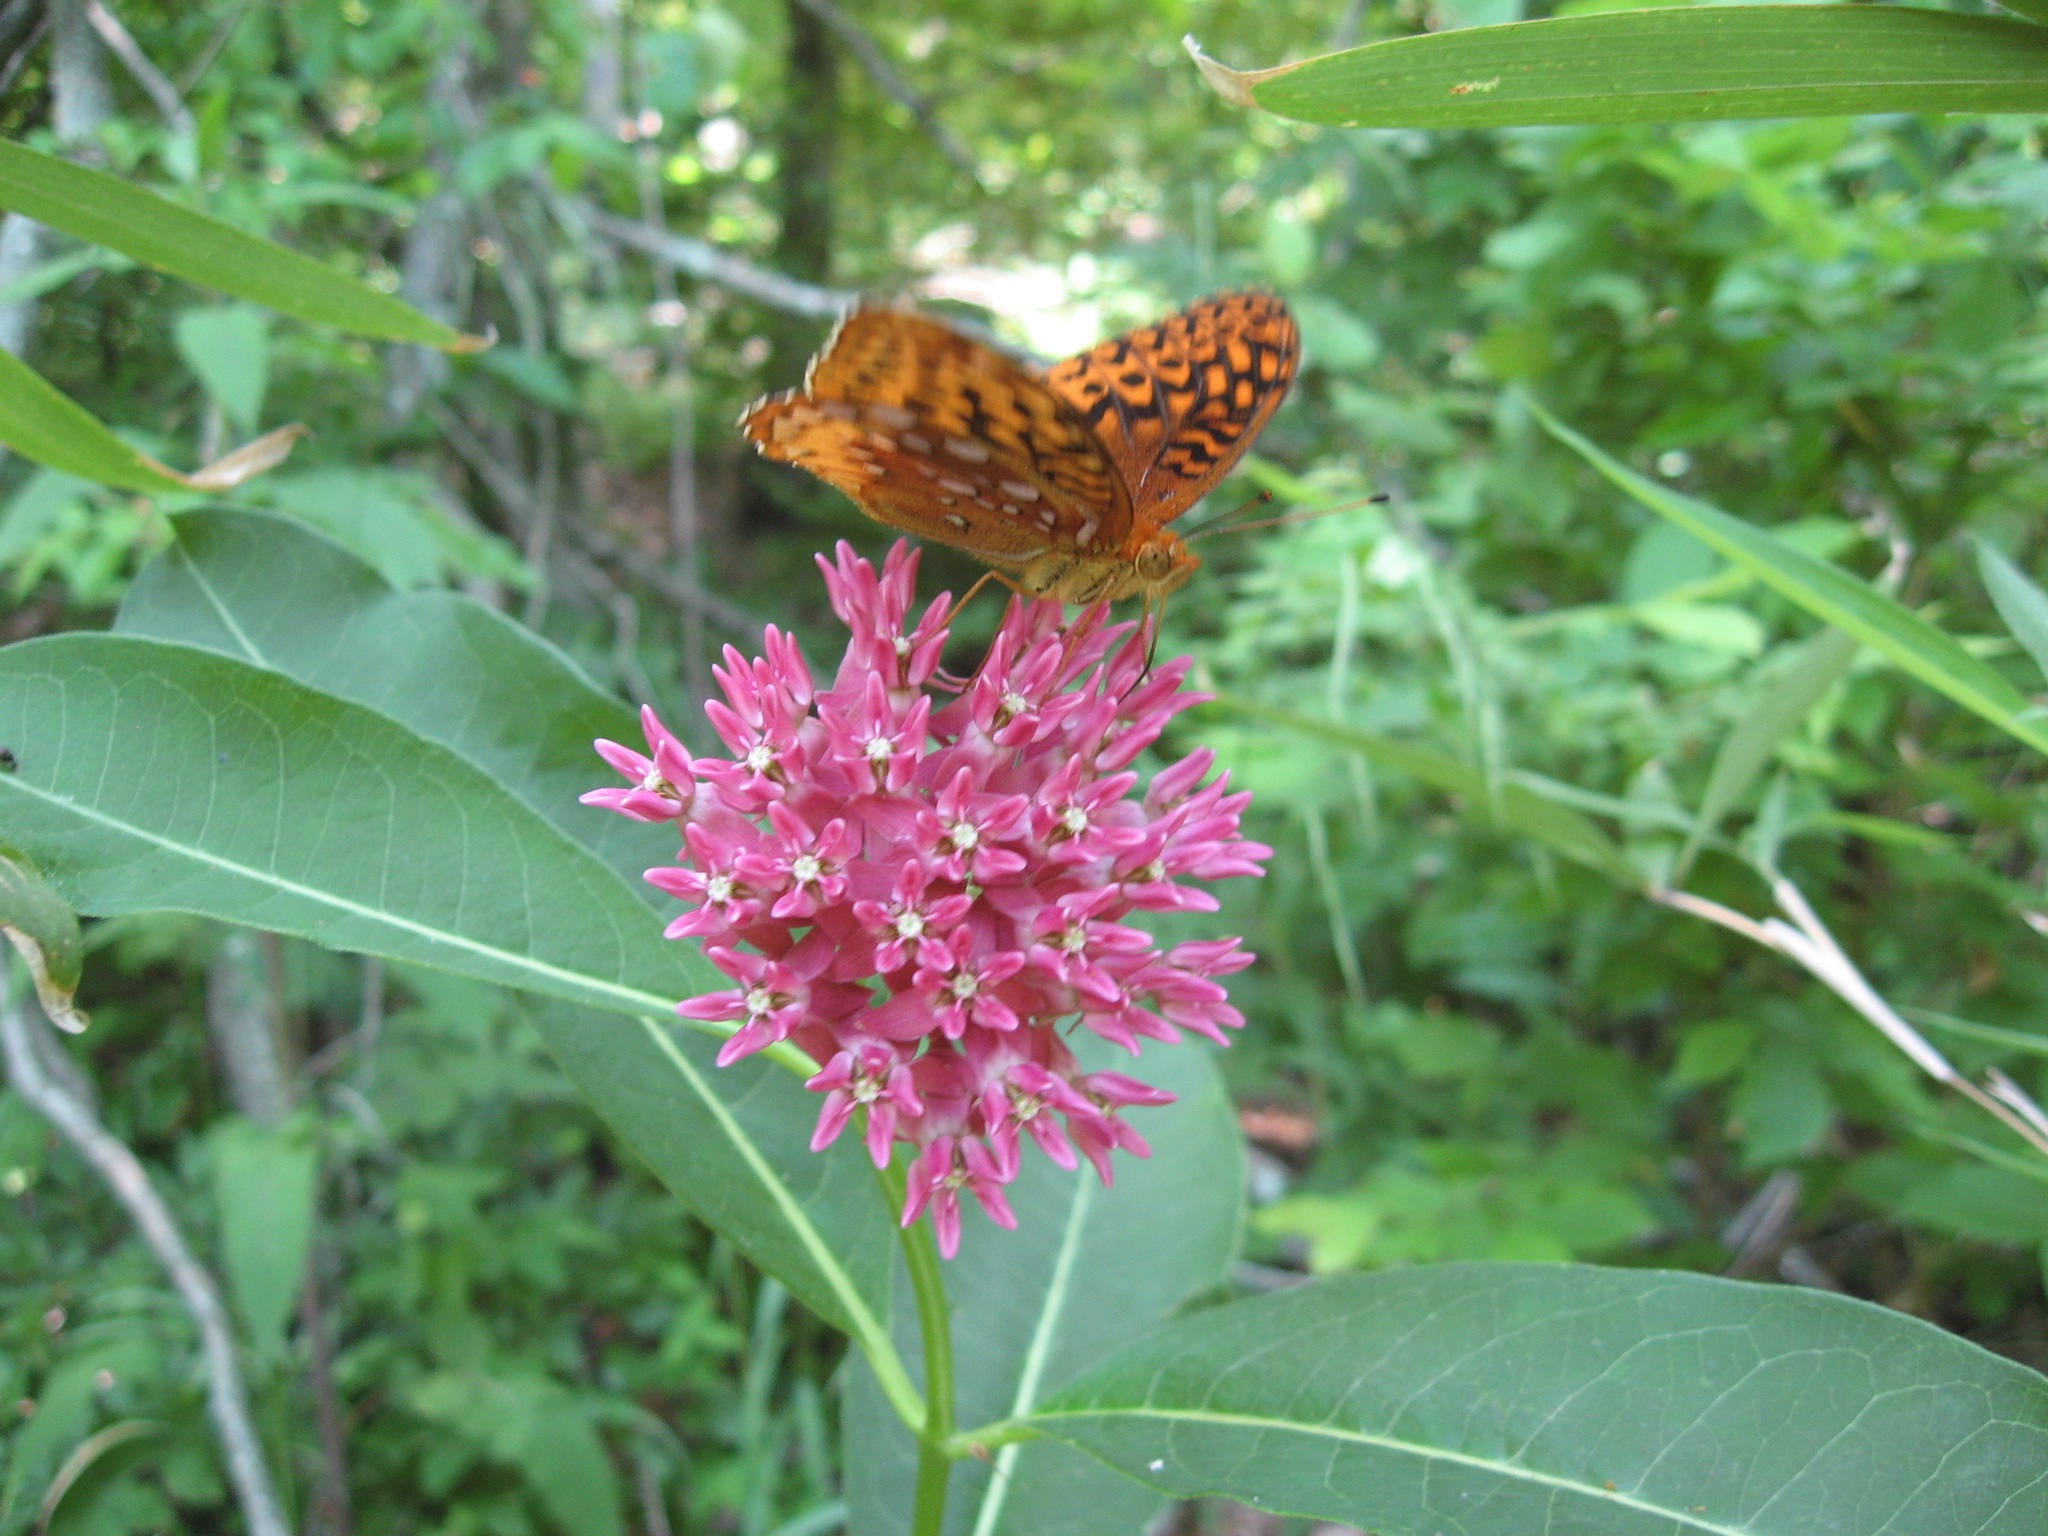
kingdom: Plantae
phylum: Tracheophyta
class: Magnoliopsida
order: Gentianales
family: Apocynaceae
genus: Asclepias
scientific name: Asclepias purpurascens
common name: Purple milkweed
